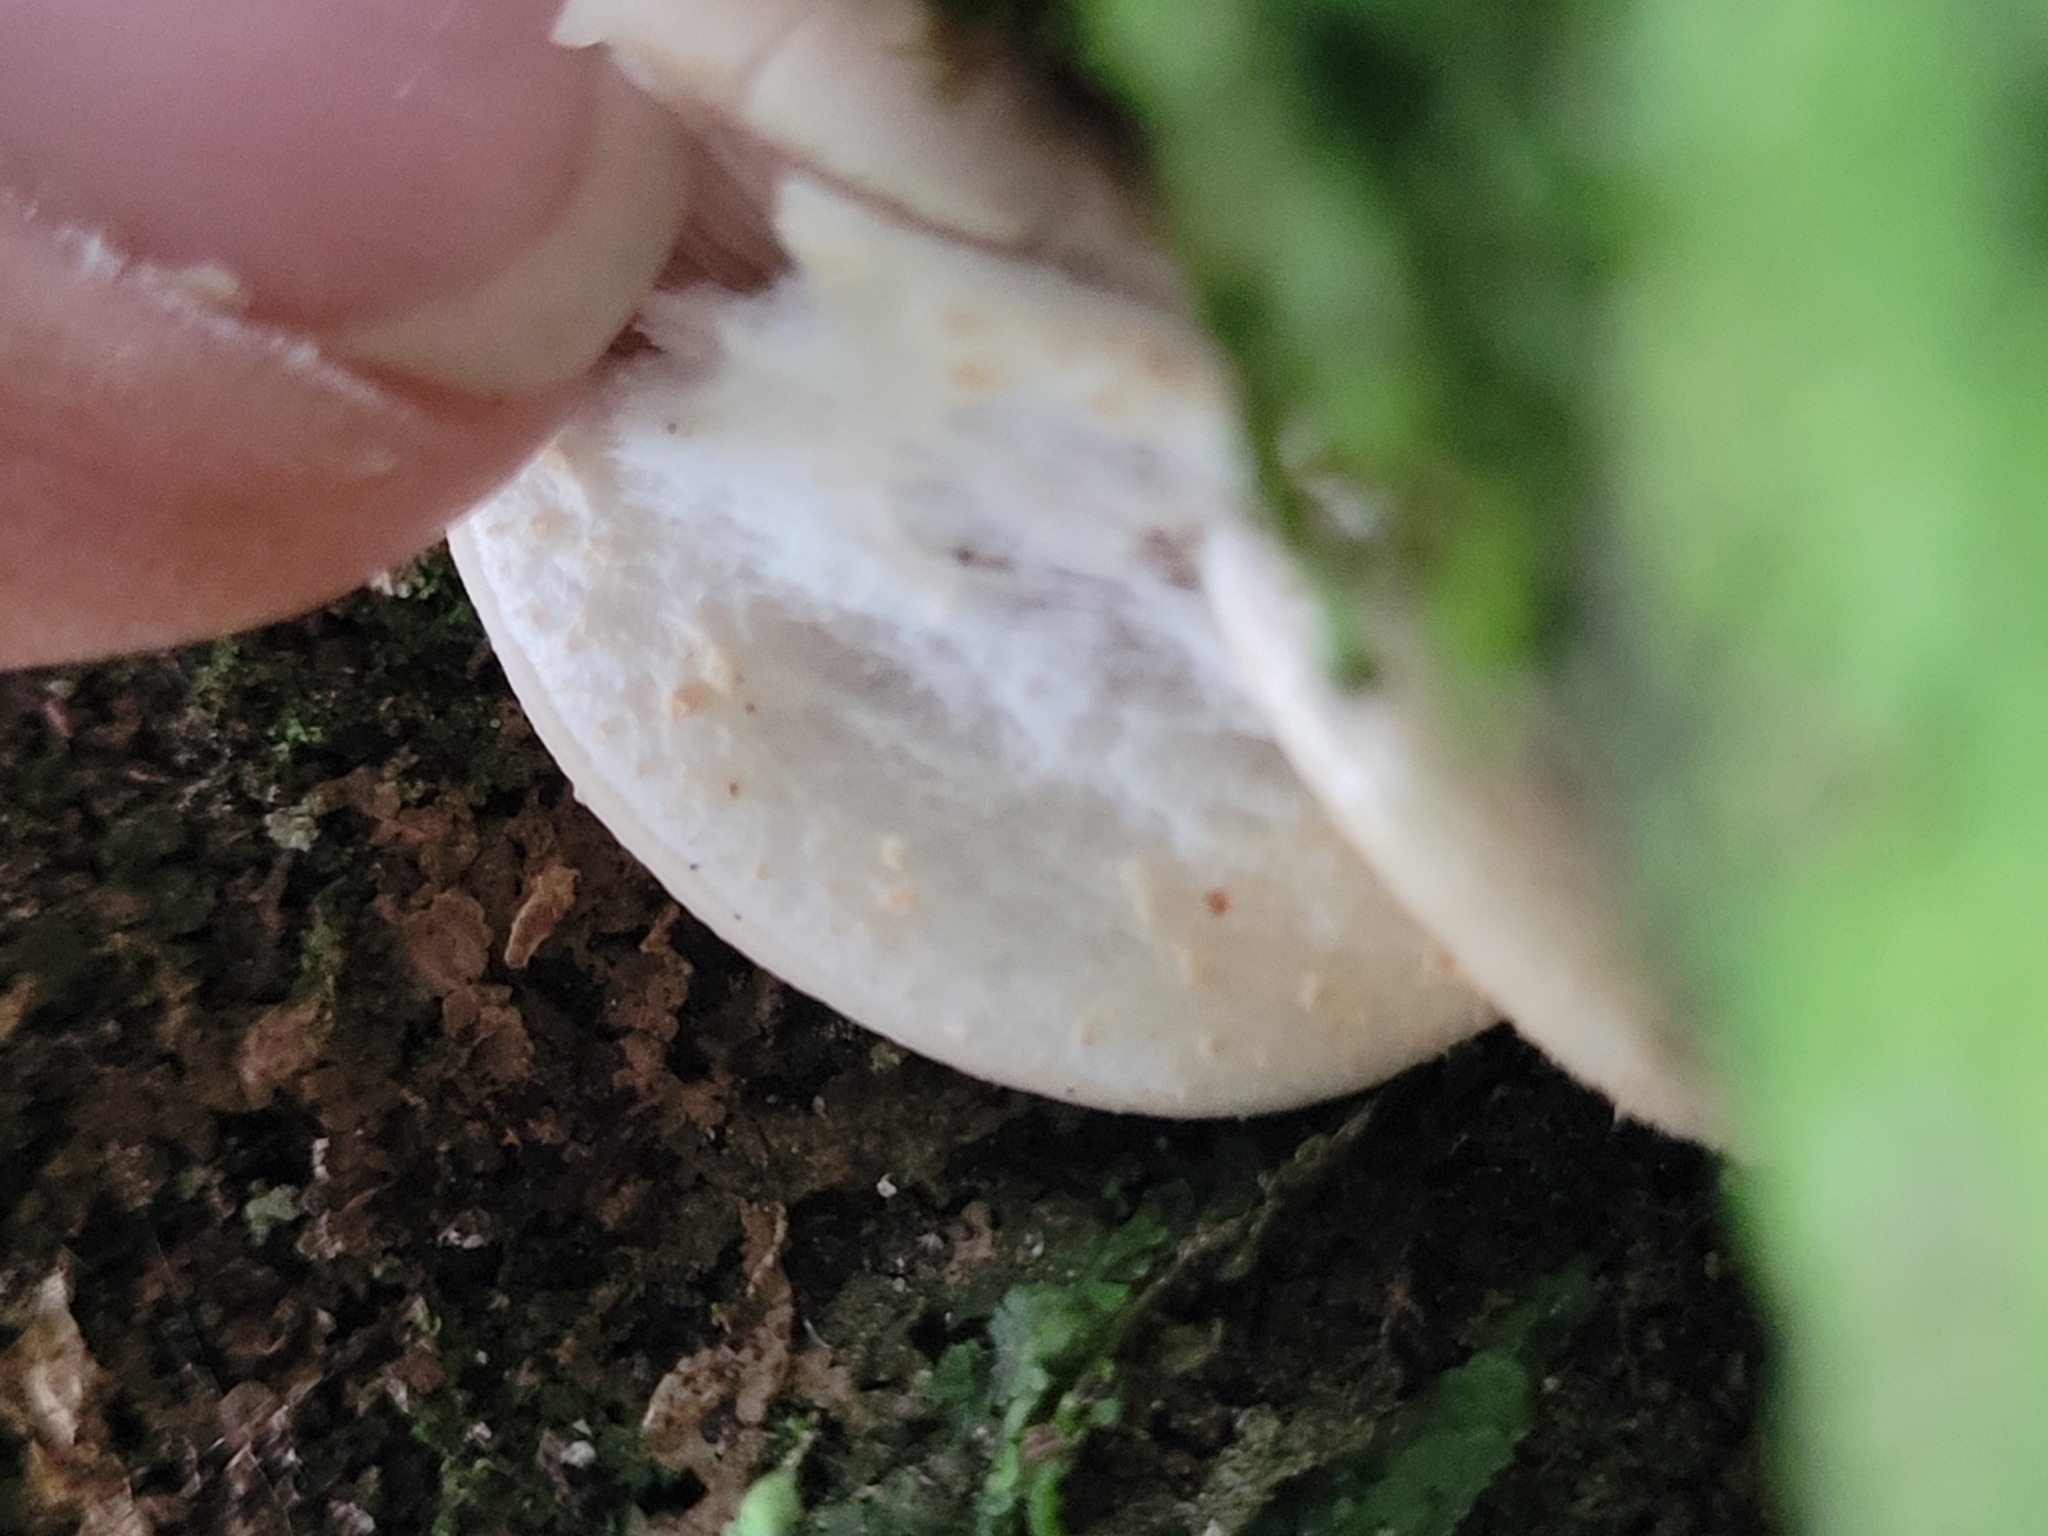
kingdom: Fungi
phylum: Basidiomycota
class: Agaricomycetes
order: Agaricales
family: Tubariaceae
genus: Cyclocybe
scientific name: Cyclocybe parasitica
